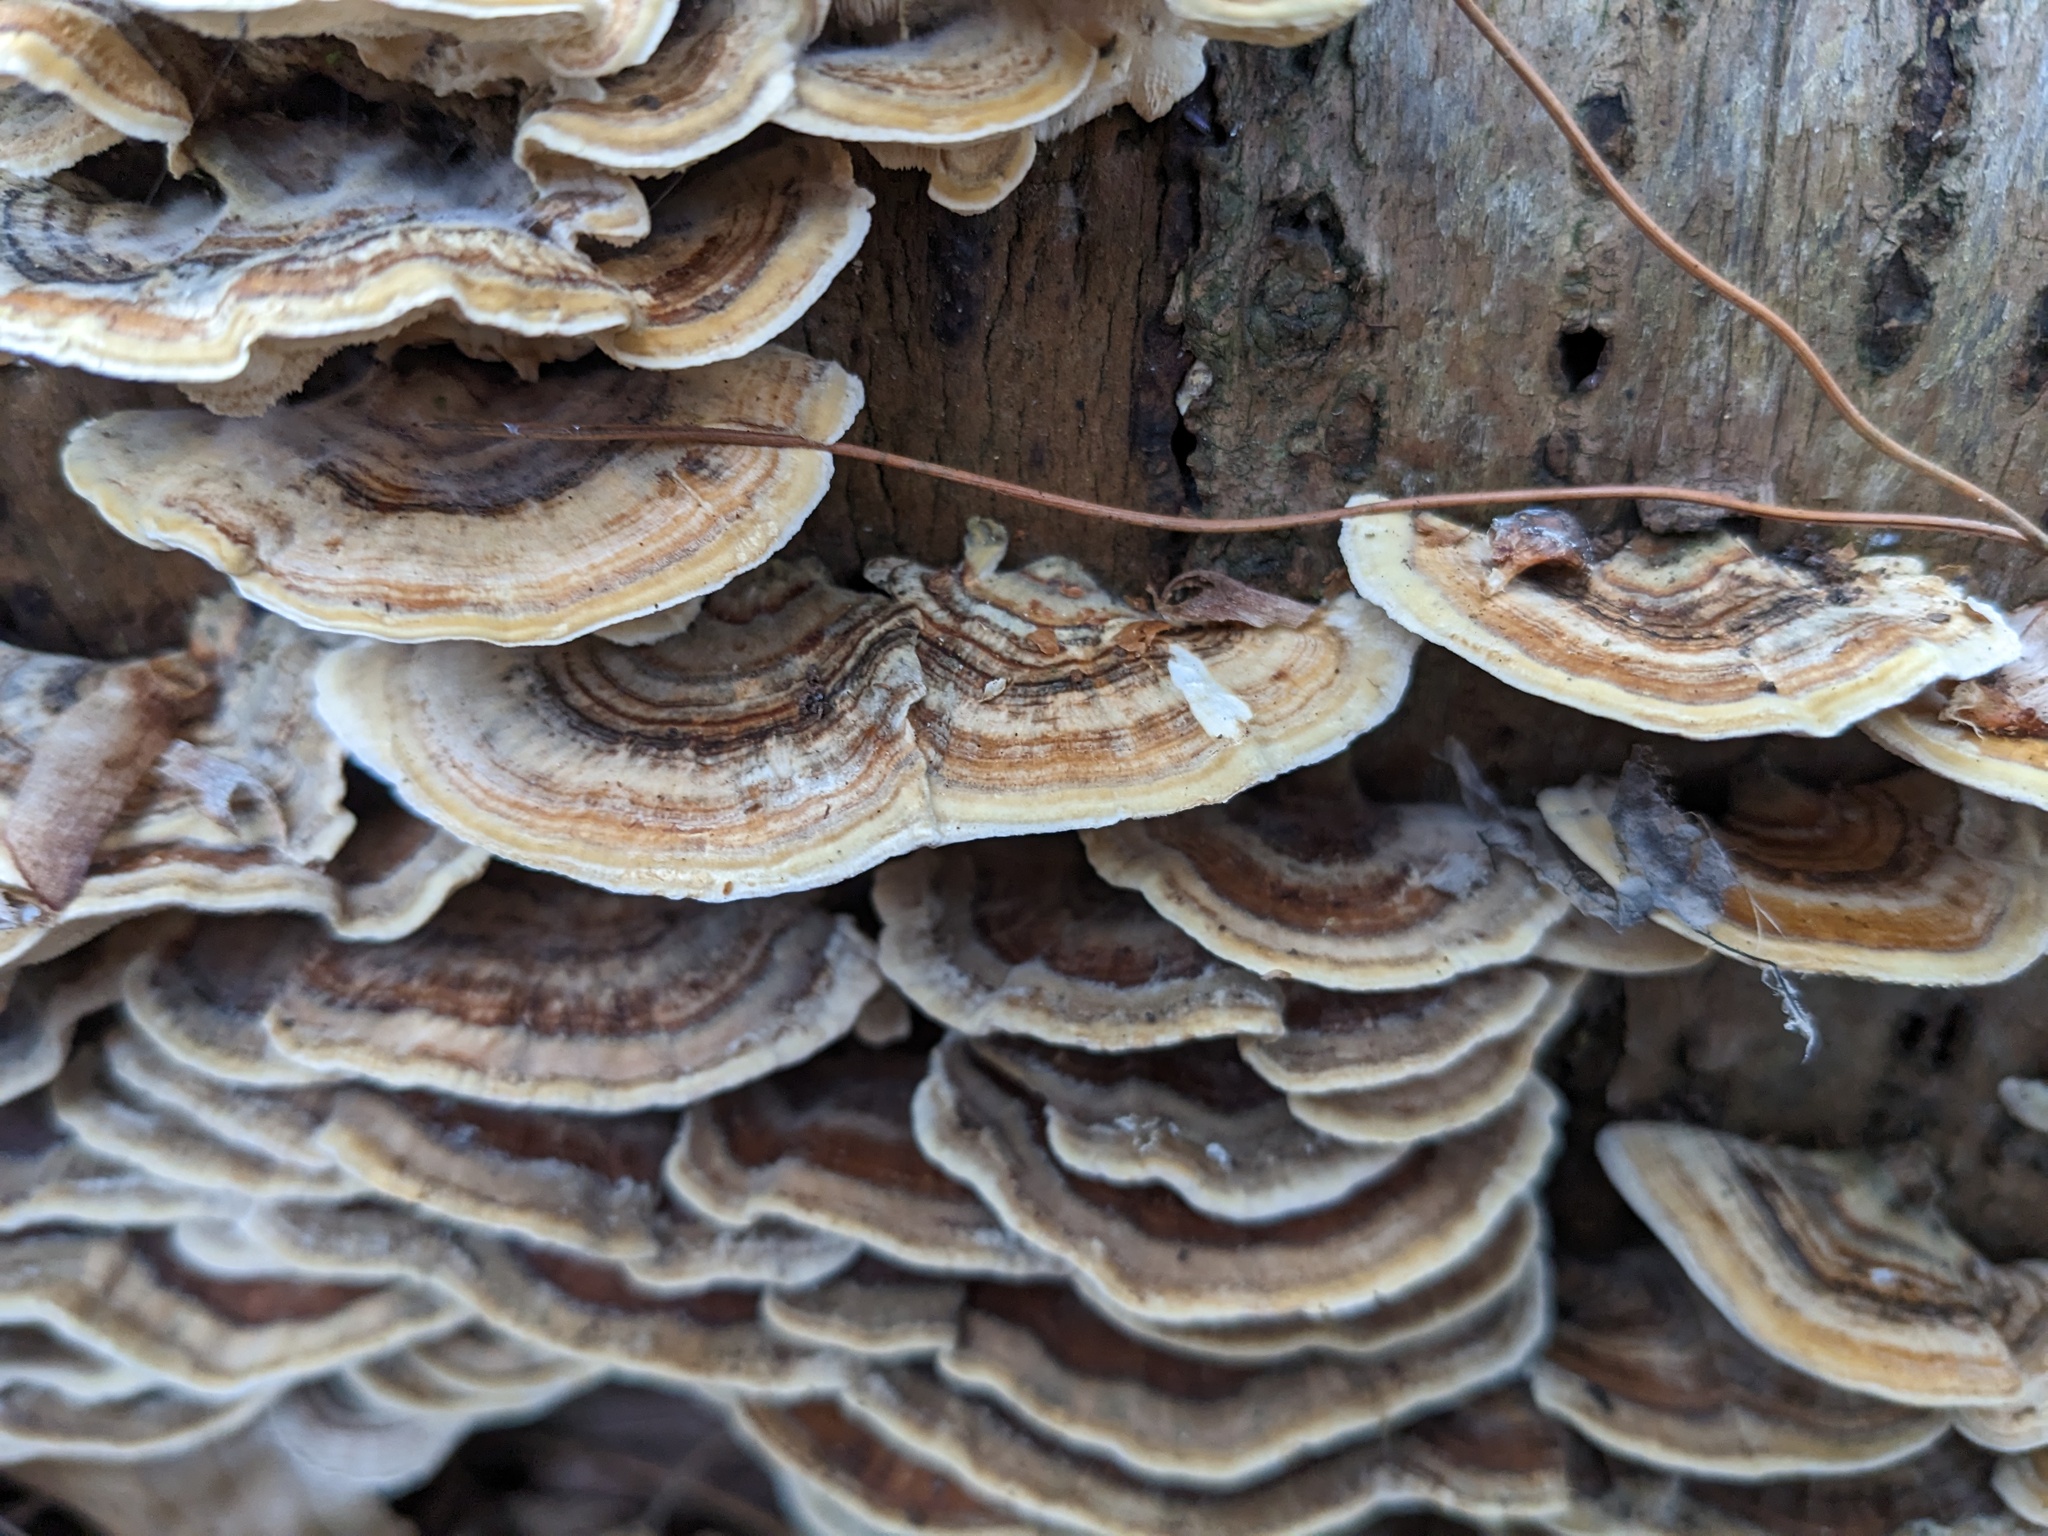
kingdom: Fungi
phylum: Basidiomycota
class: Agaricomycetes
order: Polyporales
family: Polyporaceae
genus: Trametes
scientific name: Trametes versicolor
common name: Turkeytail
